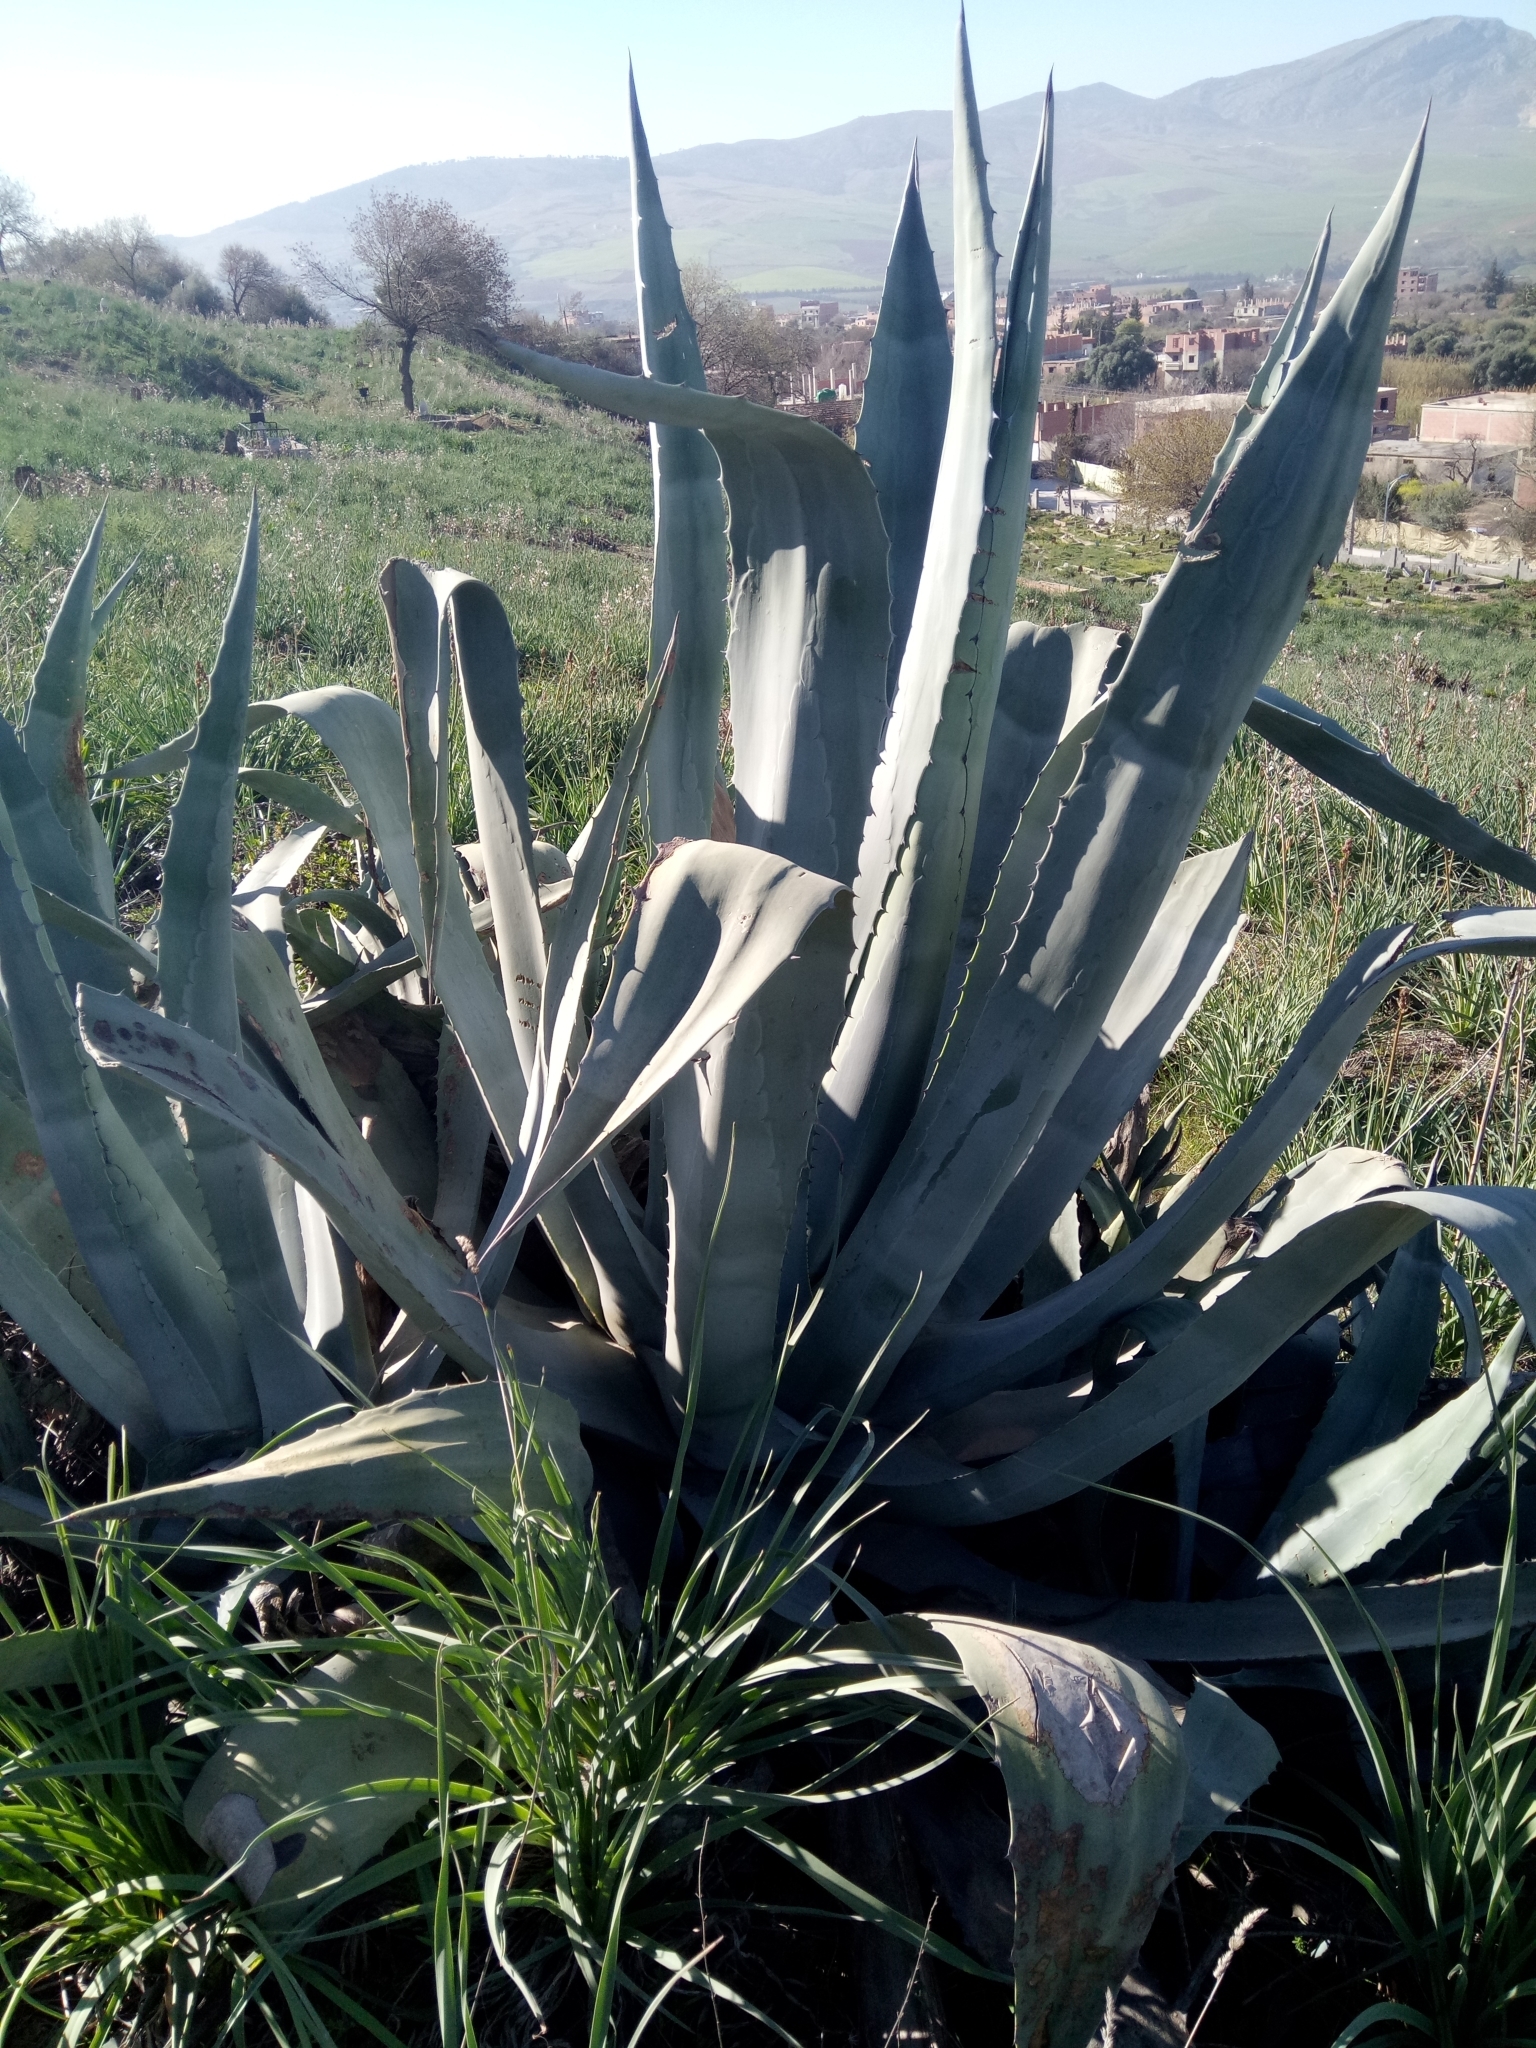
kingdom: Plantae
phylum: Tracheophyta
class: Liliopsida
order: Asparagales
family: Asparagaceae
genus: Agave
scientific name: Agave americana
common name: Centuryplant
